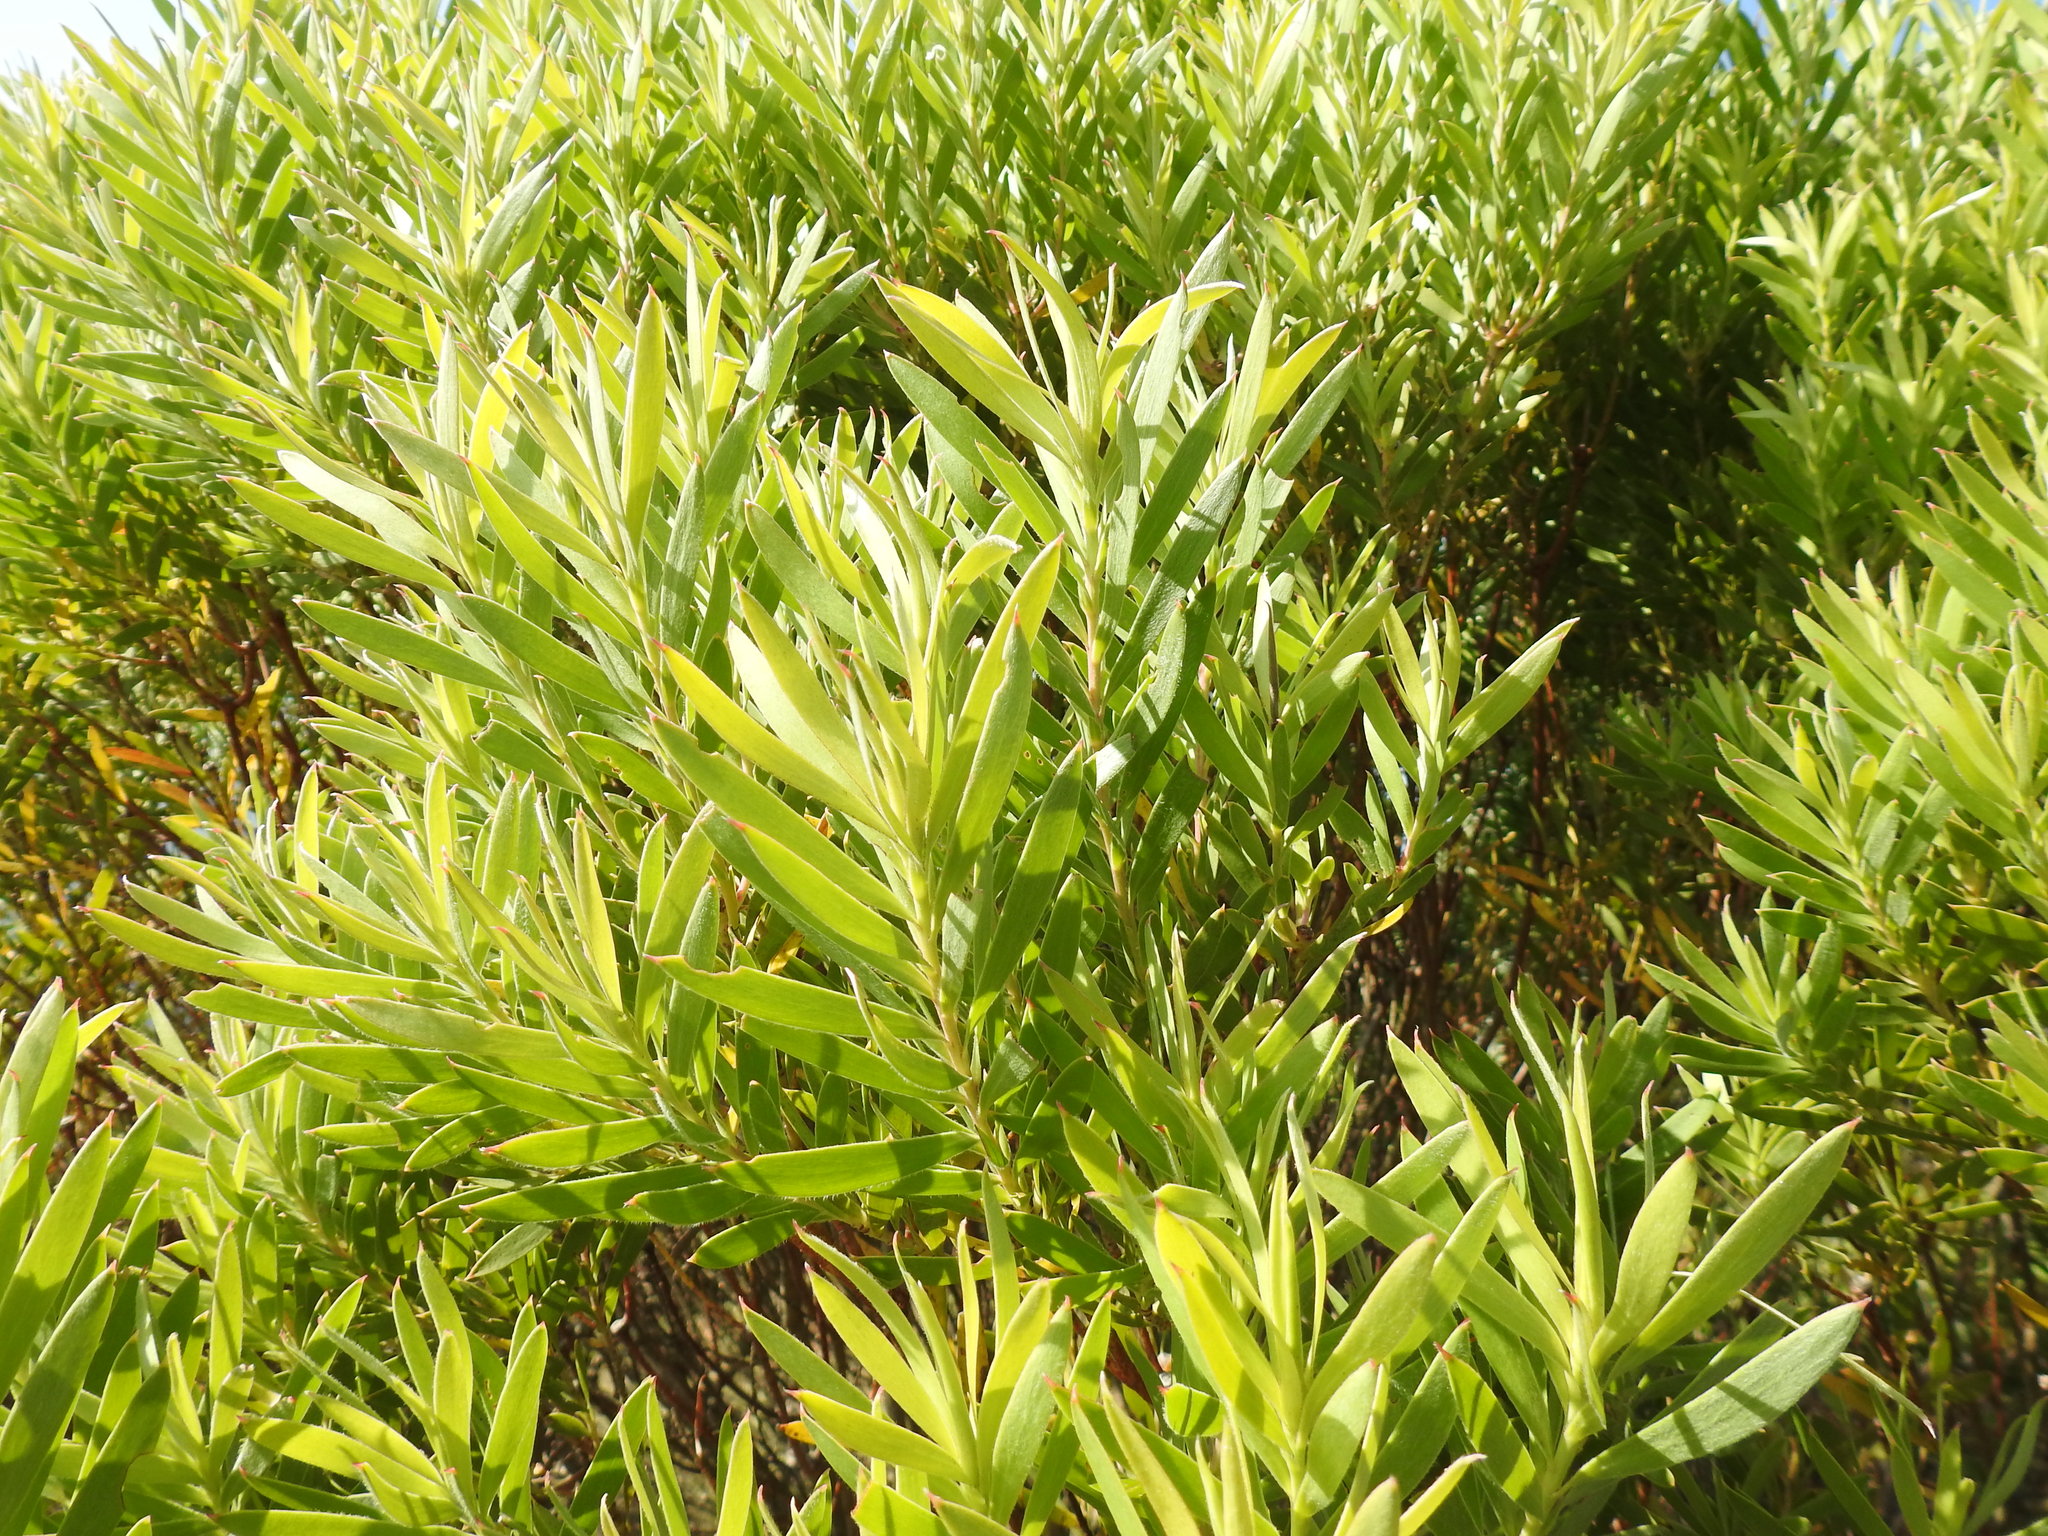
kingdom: Plantae
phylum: Tracheophyta
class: Magnoliopsida
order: Proteales
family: Proteaceae
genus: Leucadendron
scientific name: Leucadendron coniferum
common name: Dune conebush
